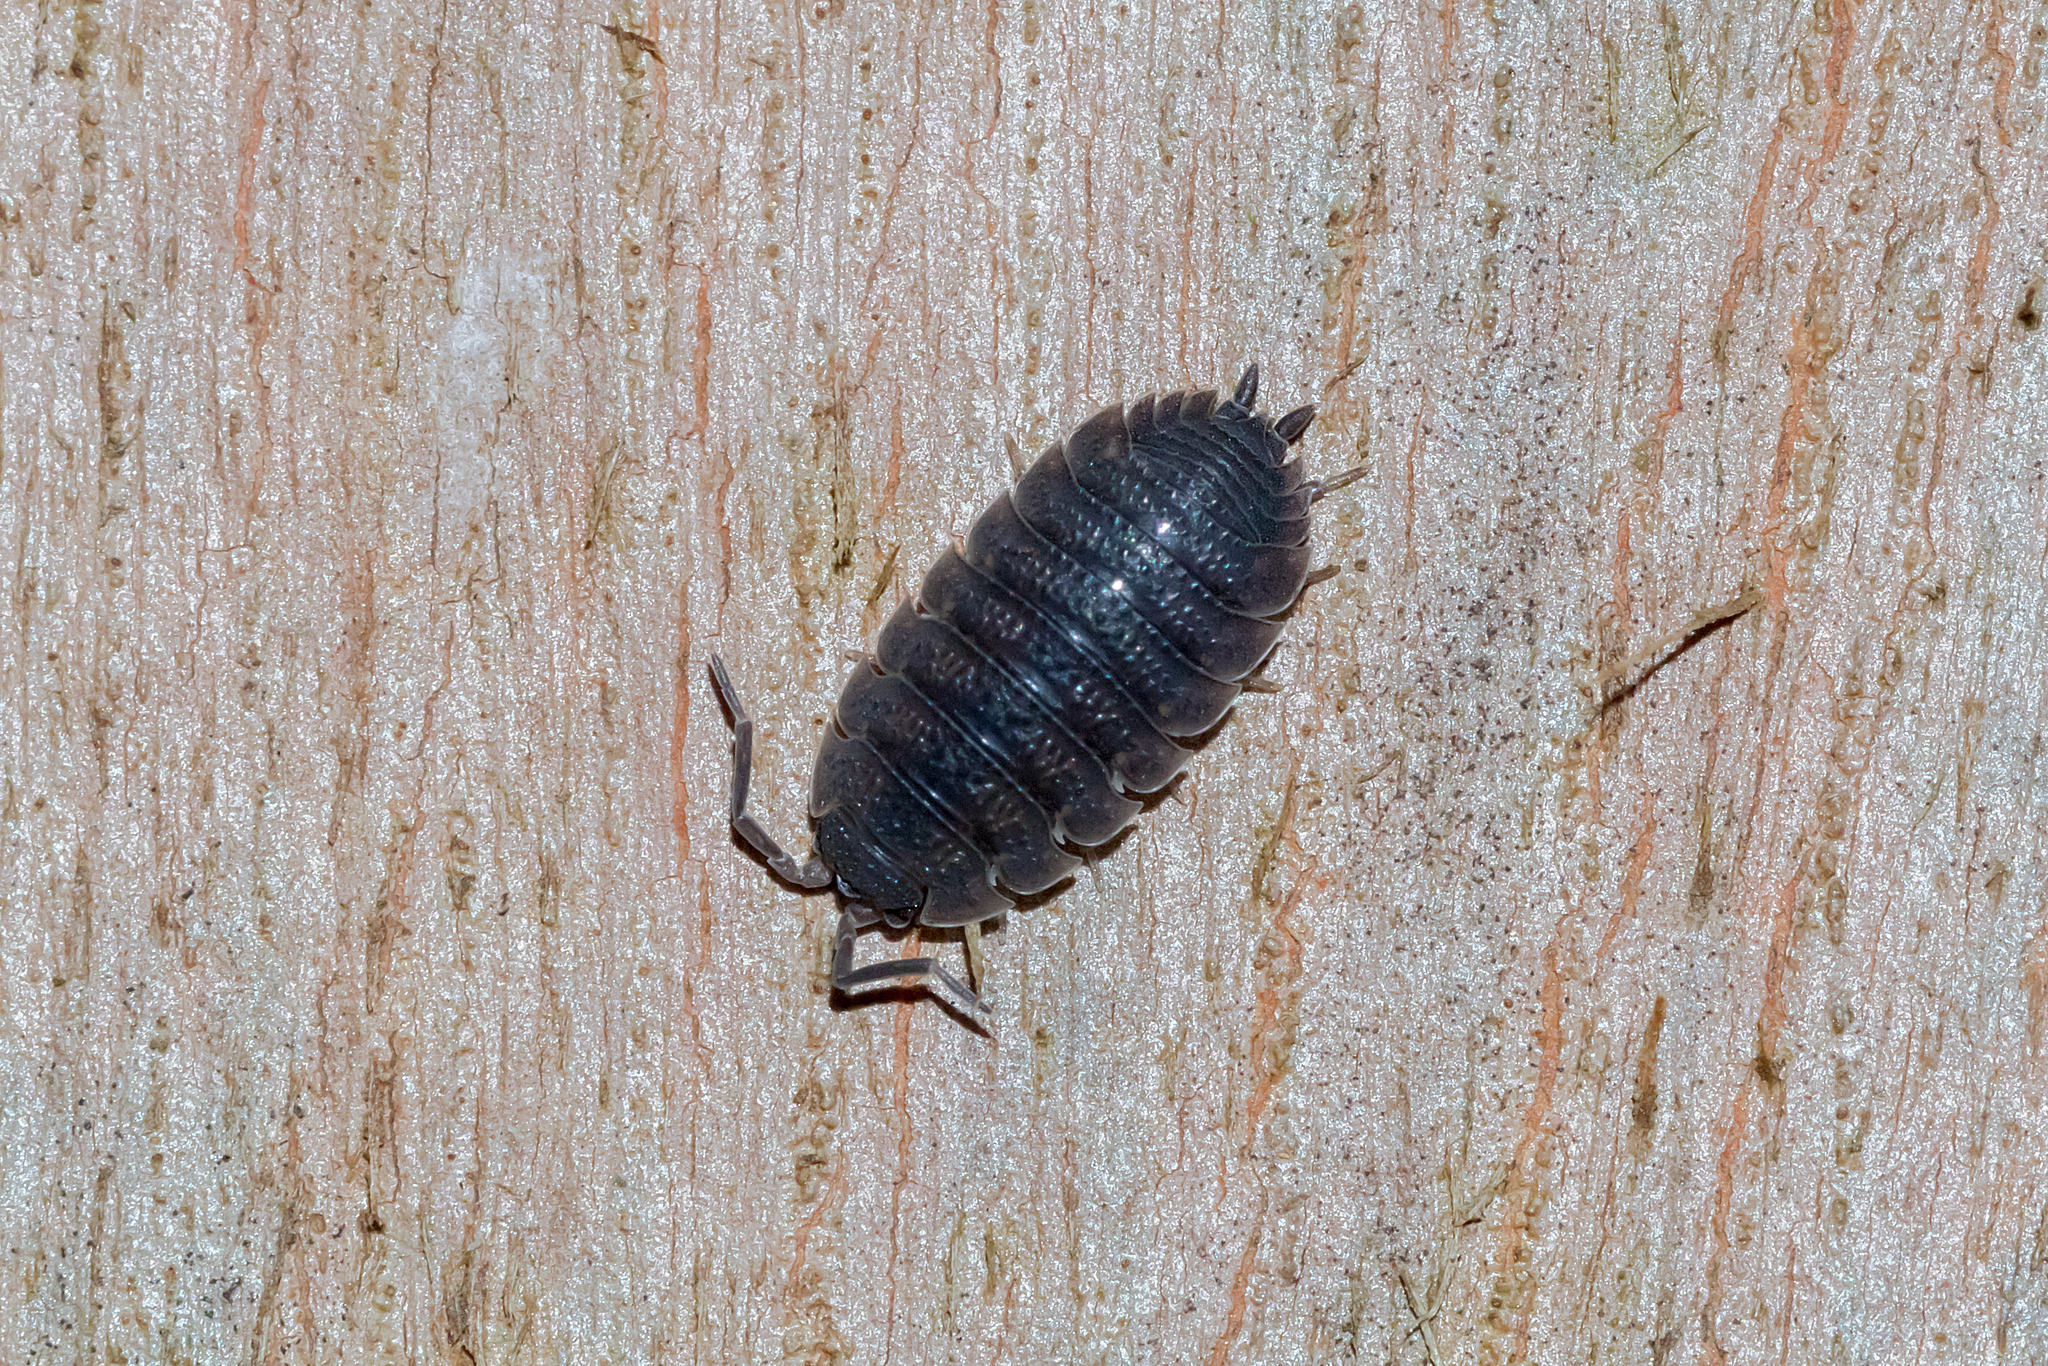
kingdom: Animalia
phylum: Arthropoda
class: Malacostraca
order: Isopoda
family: Porcellionidae
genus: Porcellio
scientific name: Porcellio scaber
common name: Common rough woodlouse
